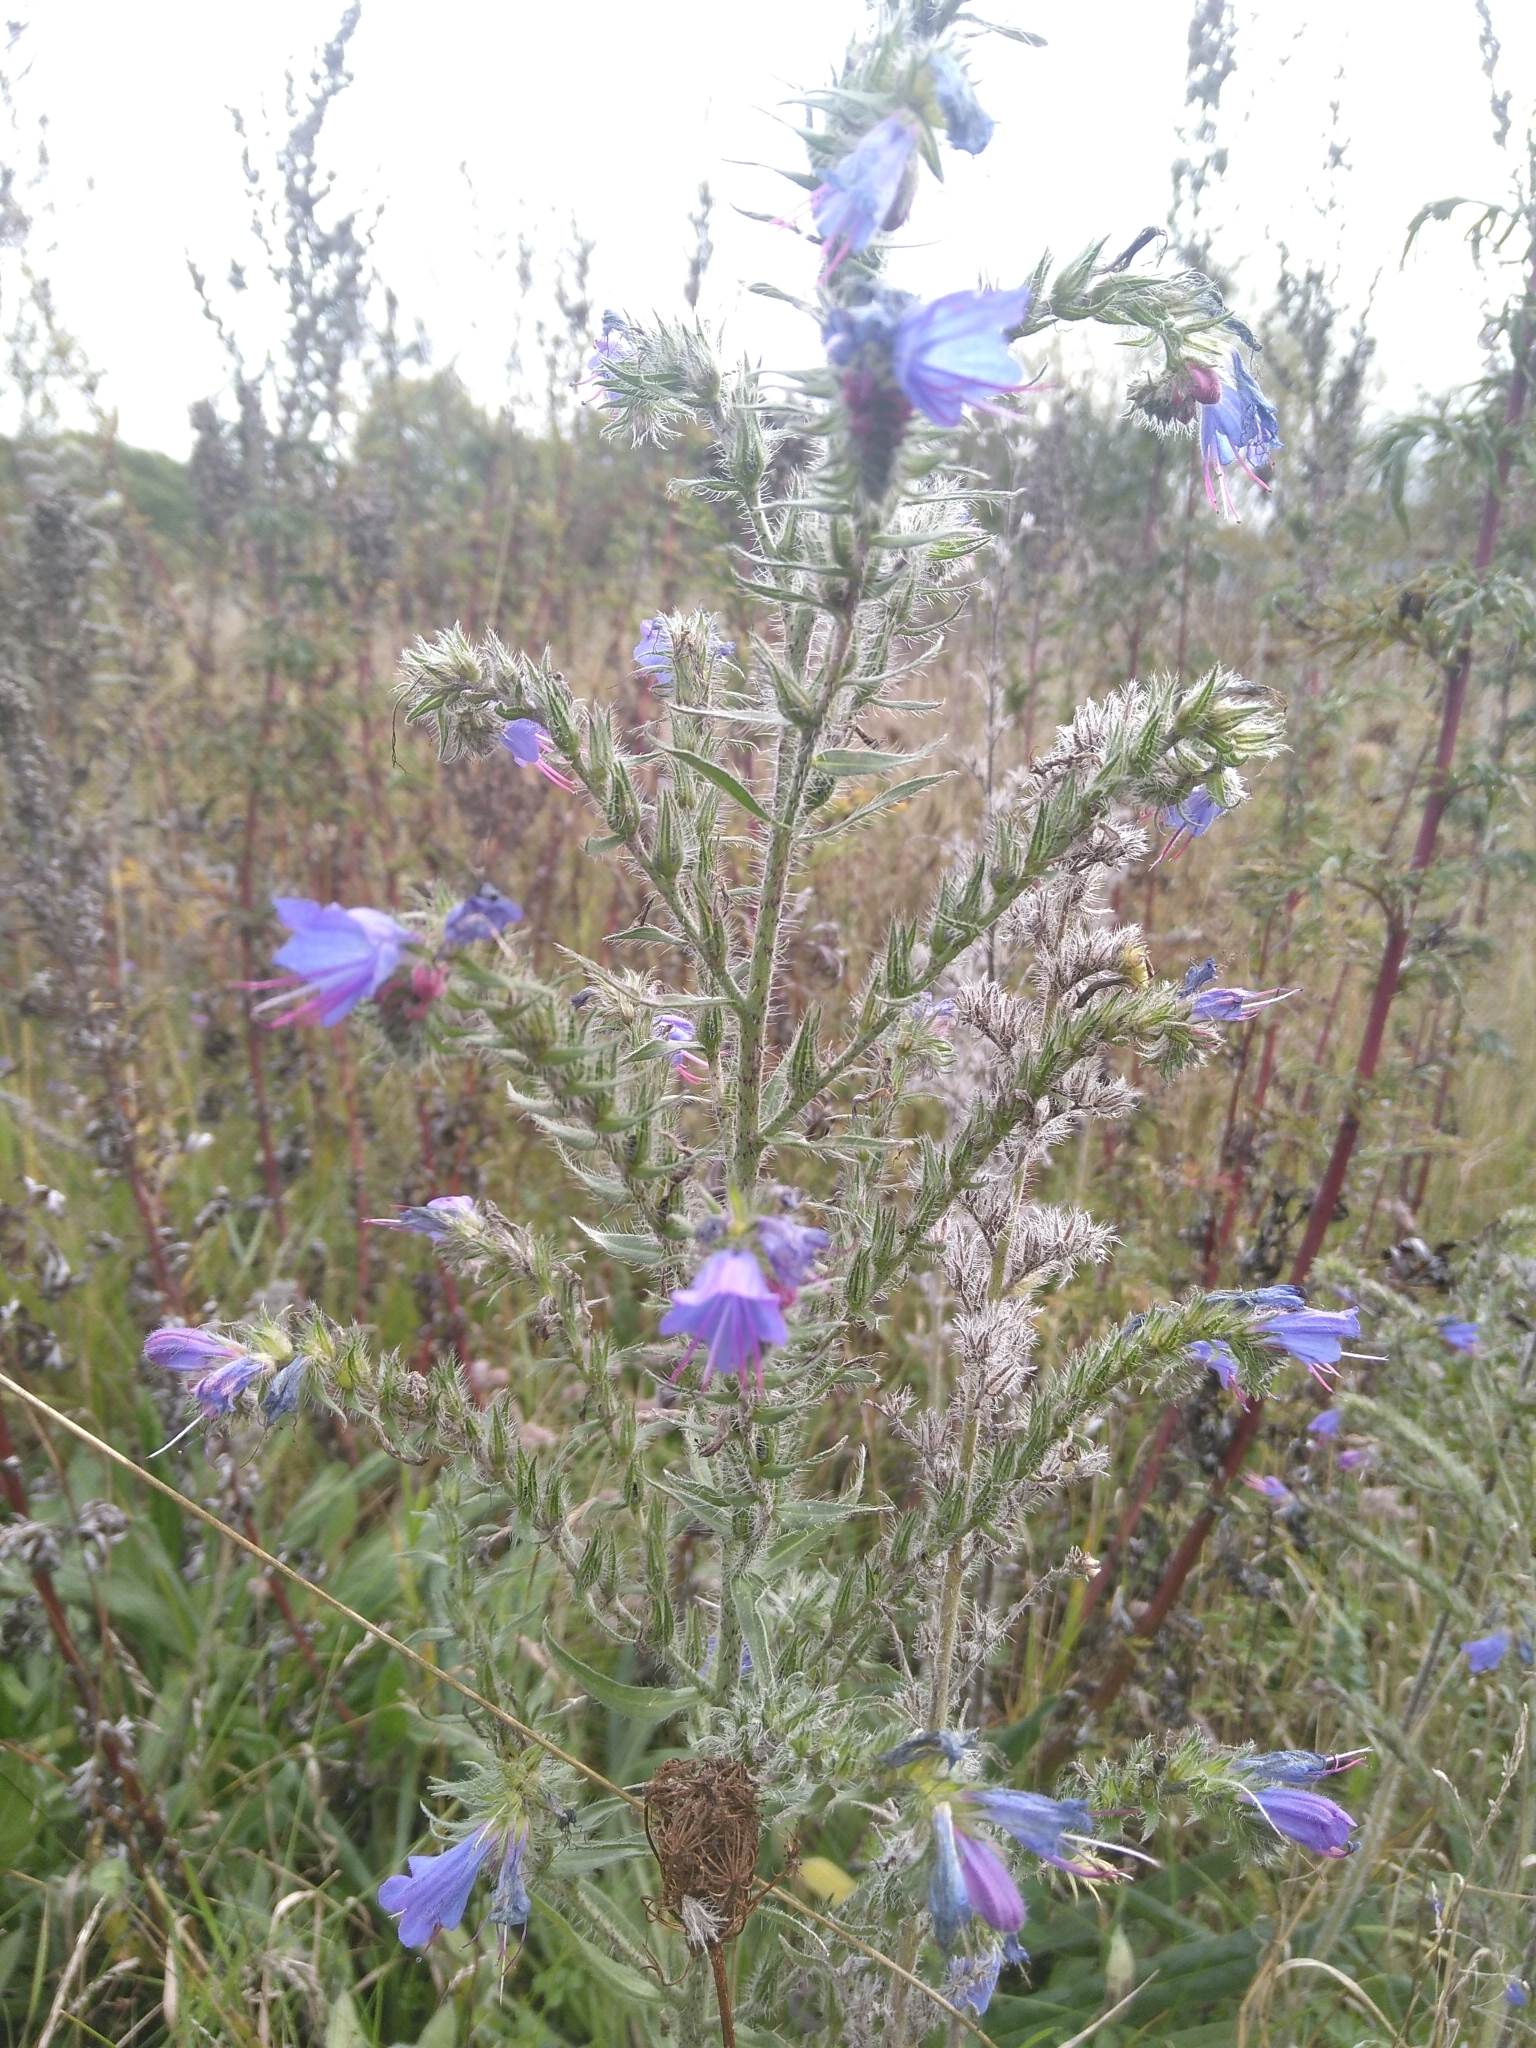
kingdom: Plantae
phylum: Tracheophyta
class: Magnoliopsida
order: Boraginales
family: Boraginaceae
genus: Echium
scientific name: Echium vulgare
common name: Common viper's bugloss
